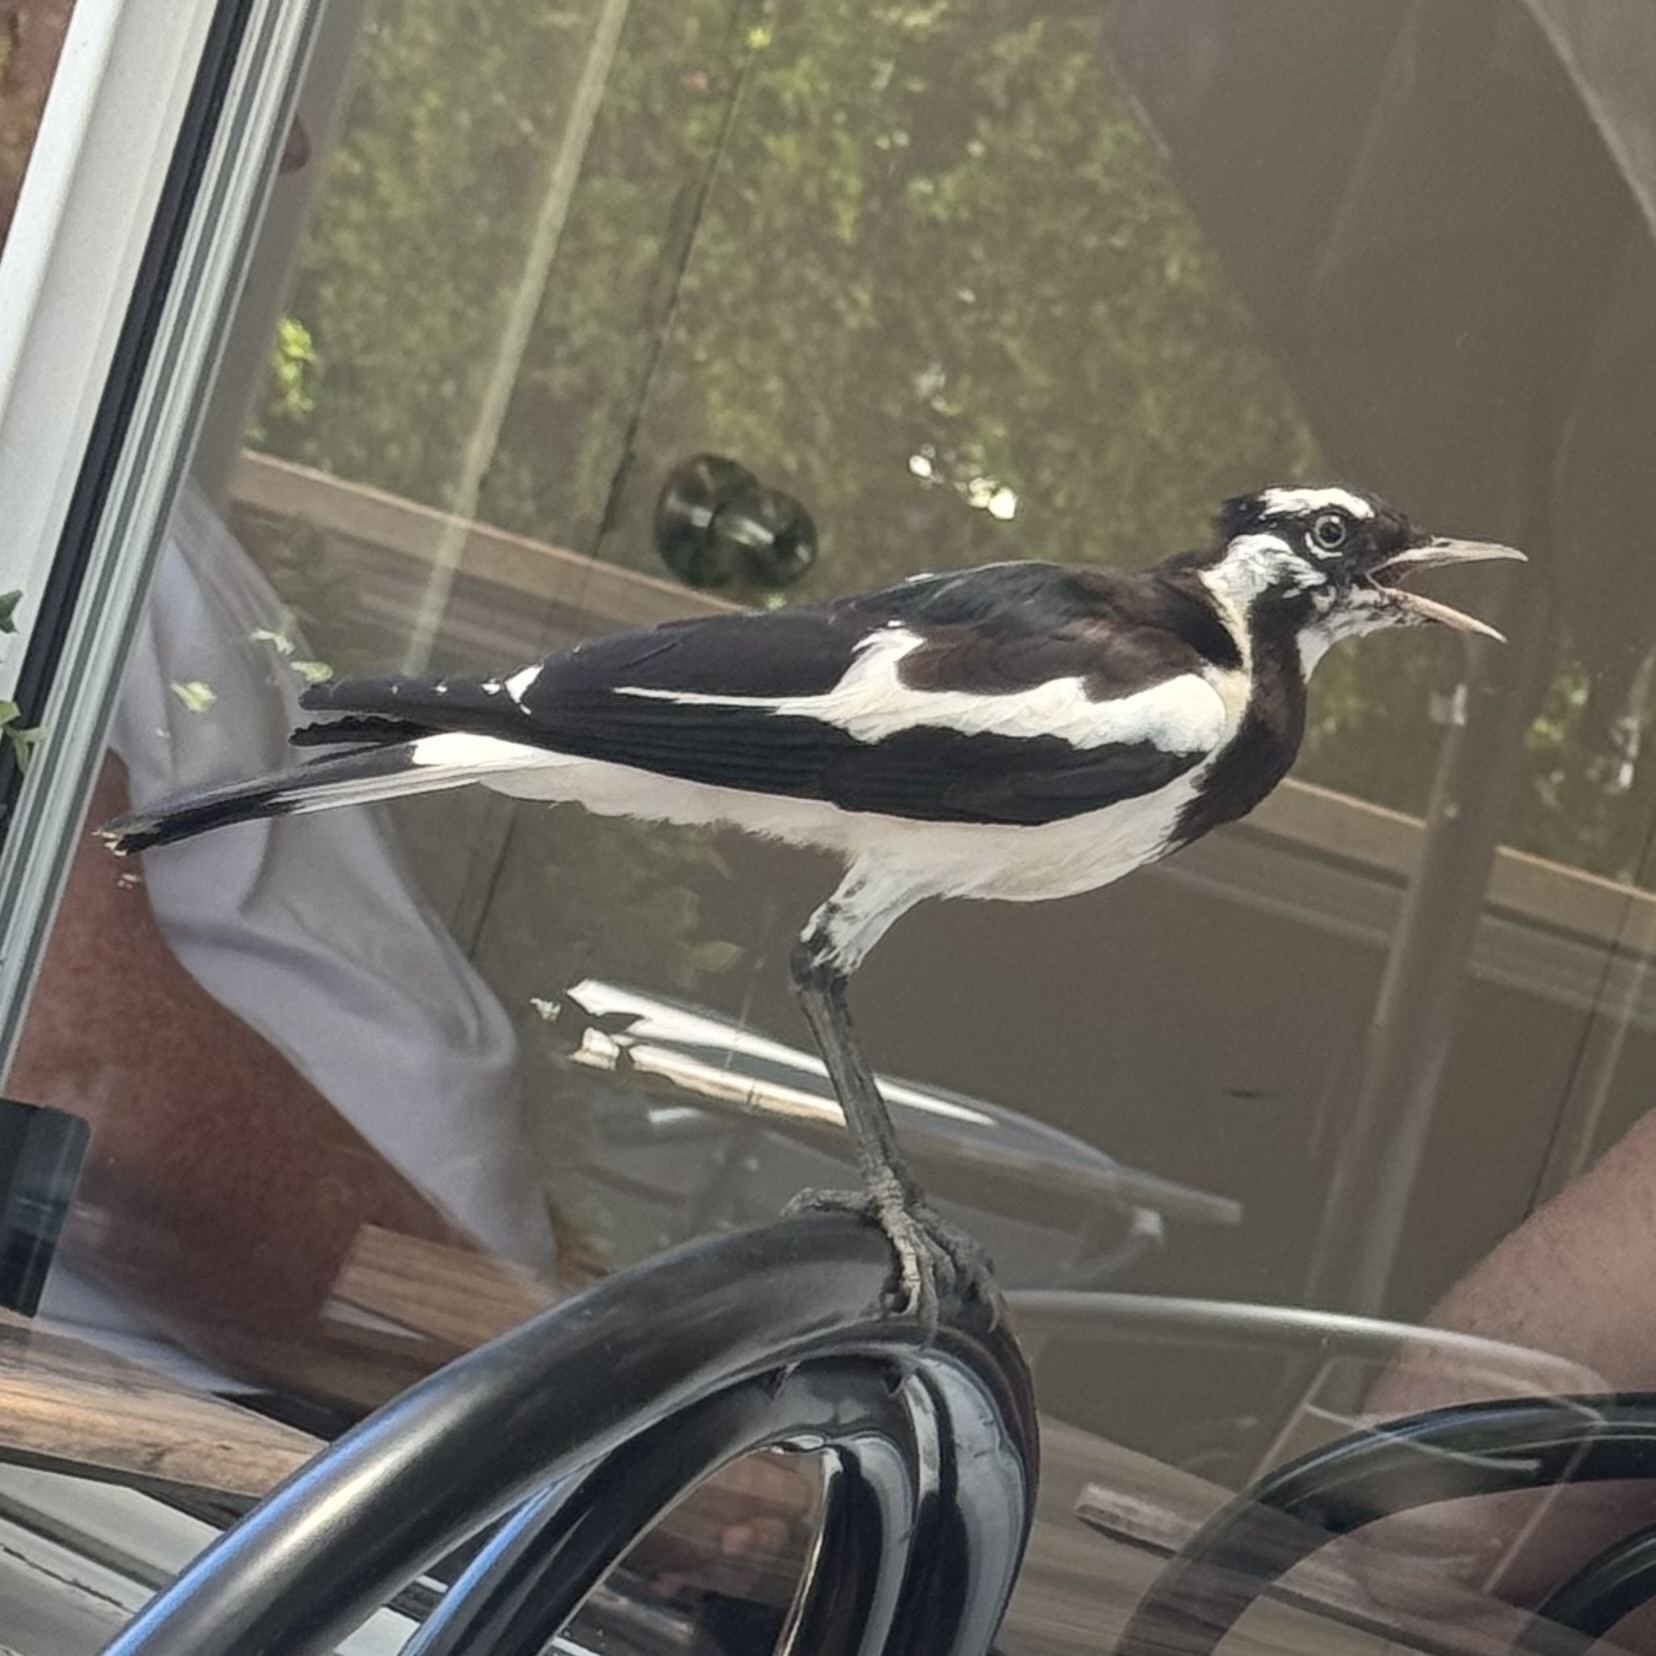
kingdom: Animalia
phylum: Chordata
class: Aves
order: Passeriformes
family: Monarchidae
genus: Grallina
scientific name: Grallina cyanoleuca
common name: Magpie-lark
